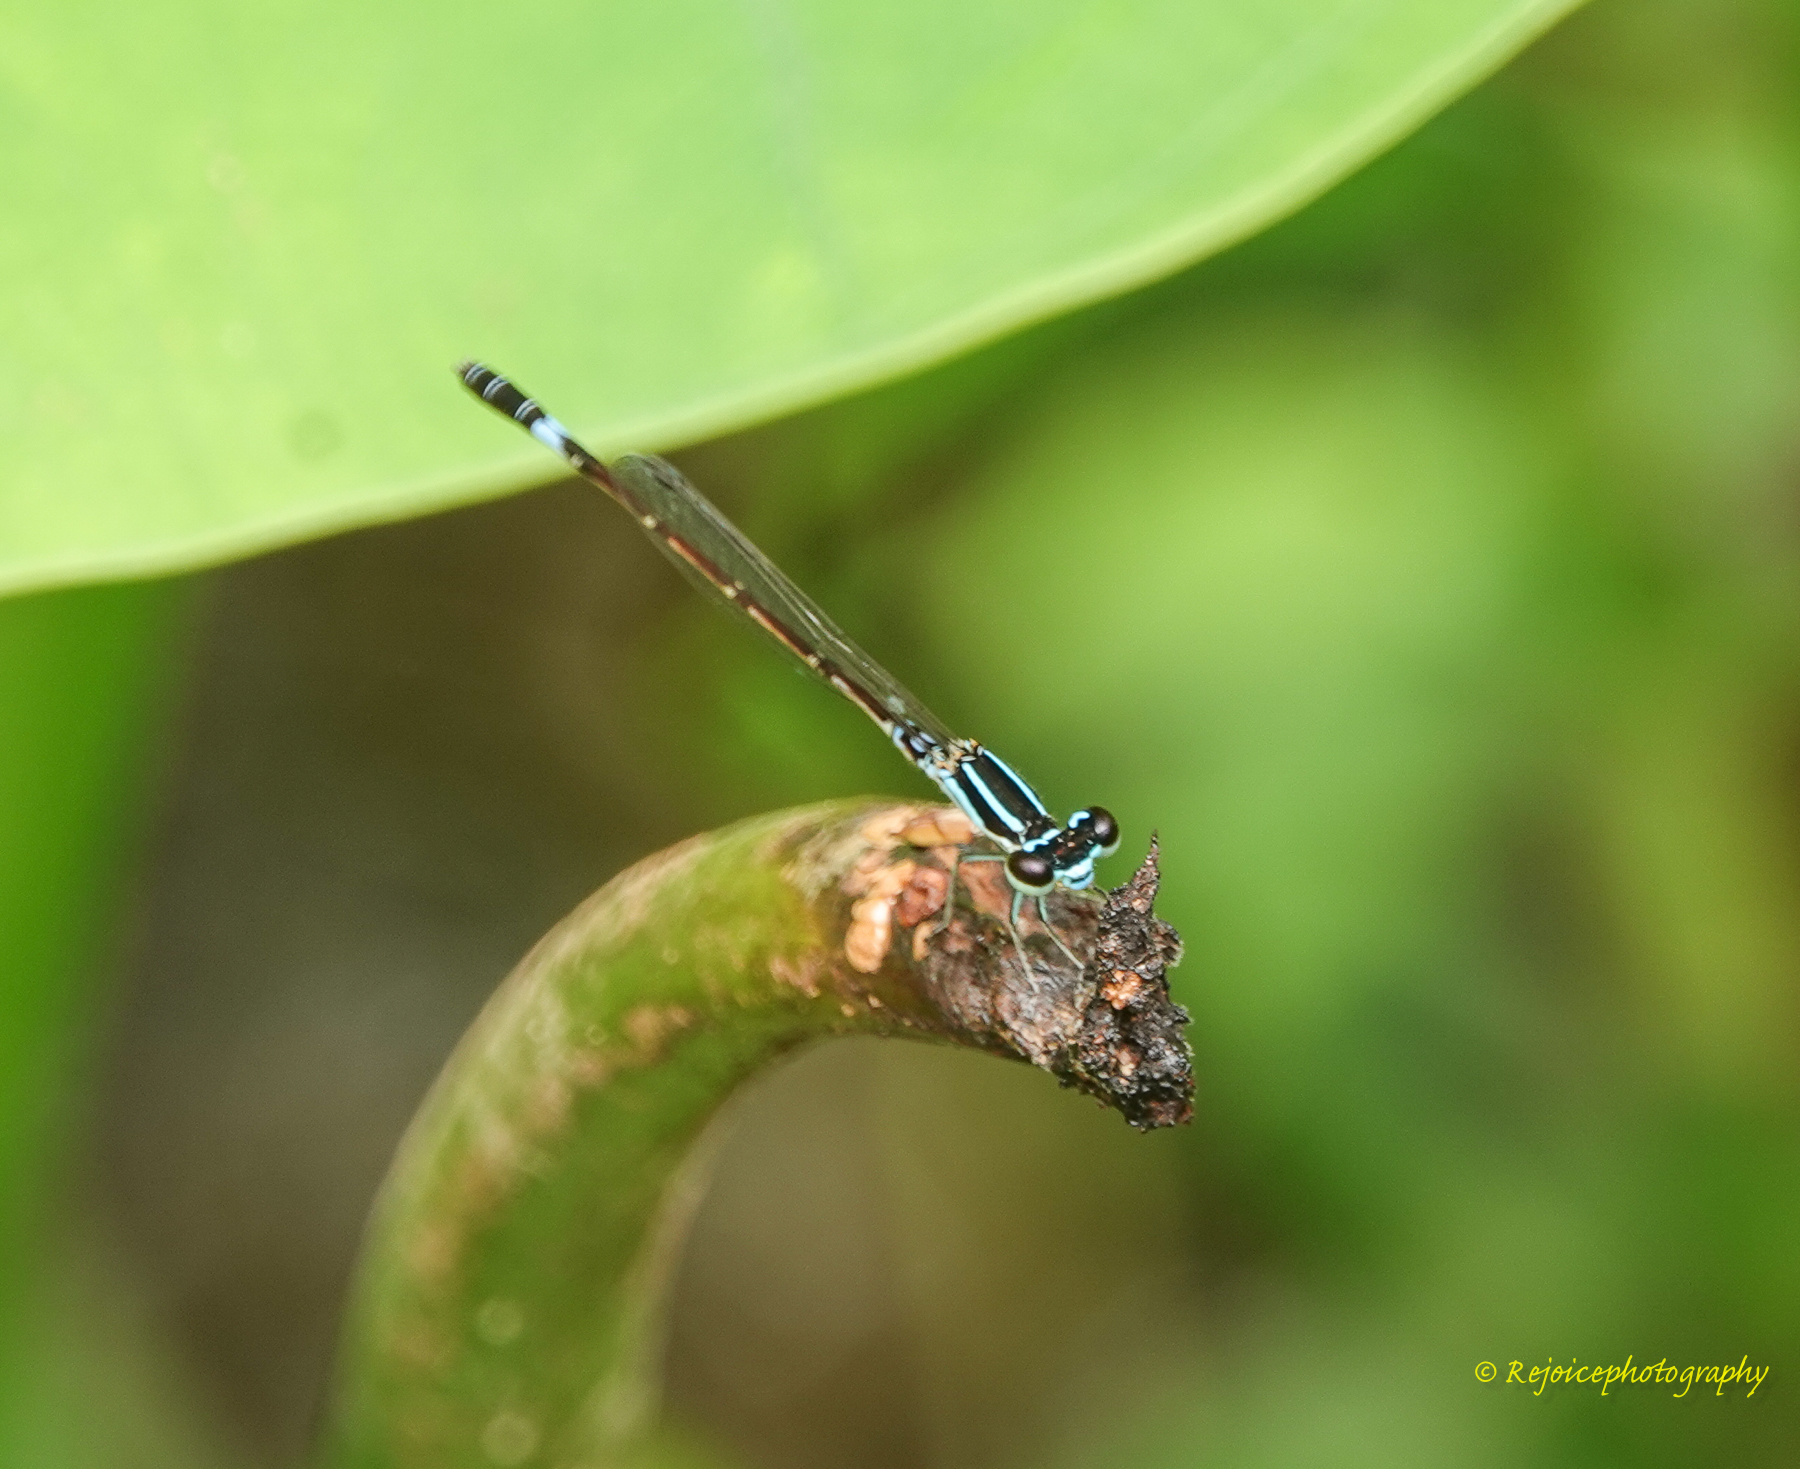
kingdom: Animalia
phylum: Arthropoda
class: Insecta
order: Odonata
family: Coenagrionidae
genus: Agriocnemis
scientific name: Agriocnemis clauseni
